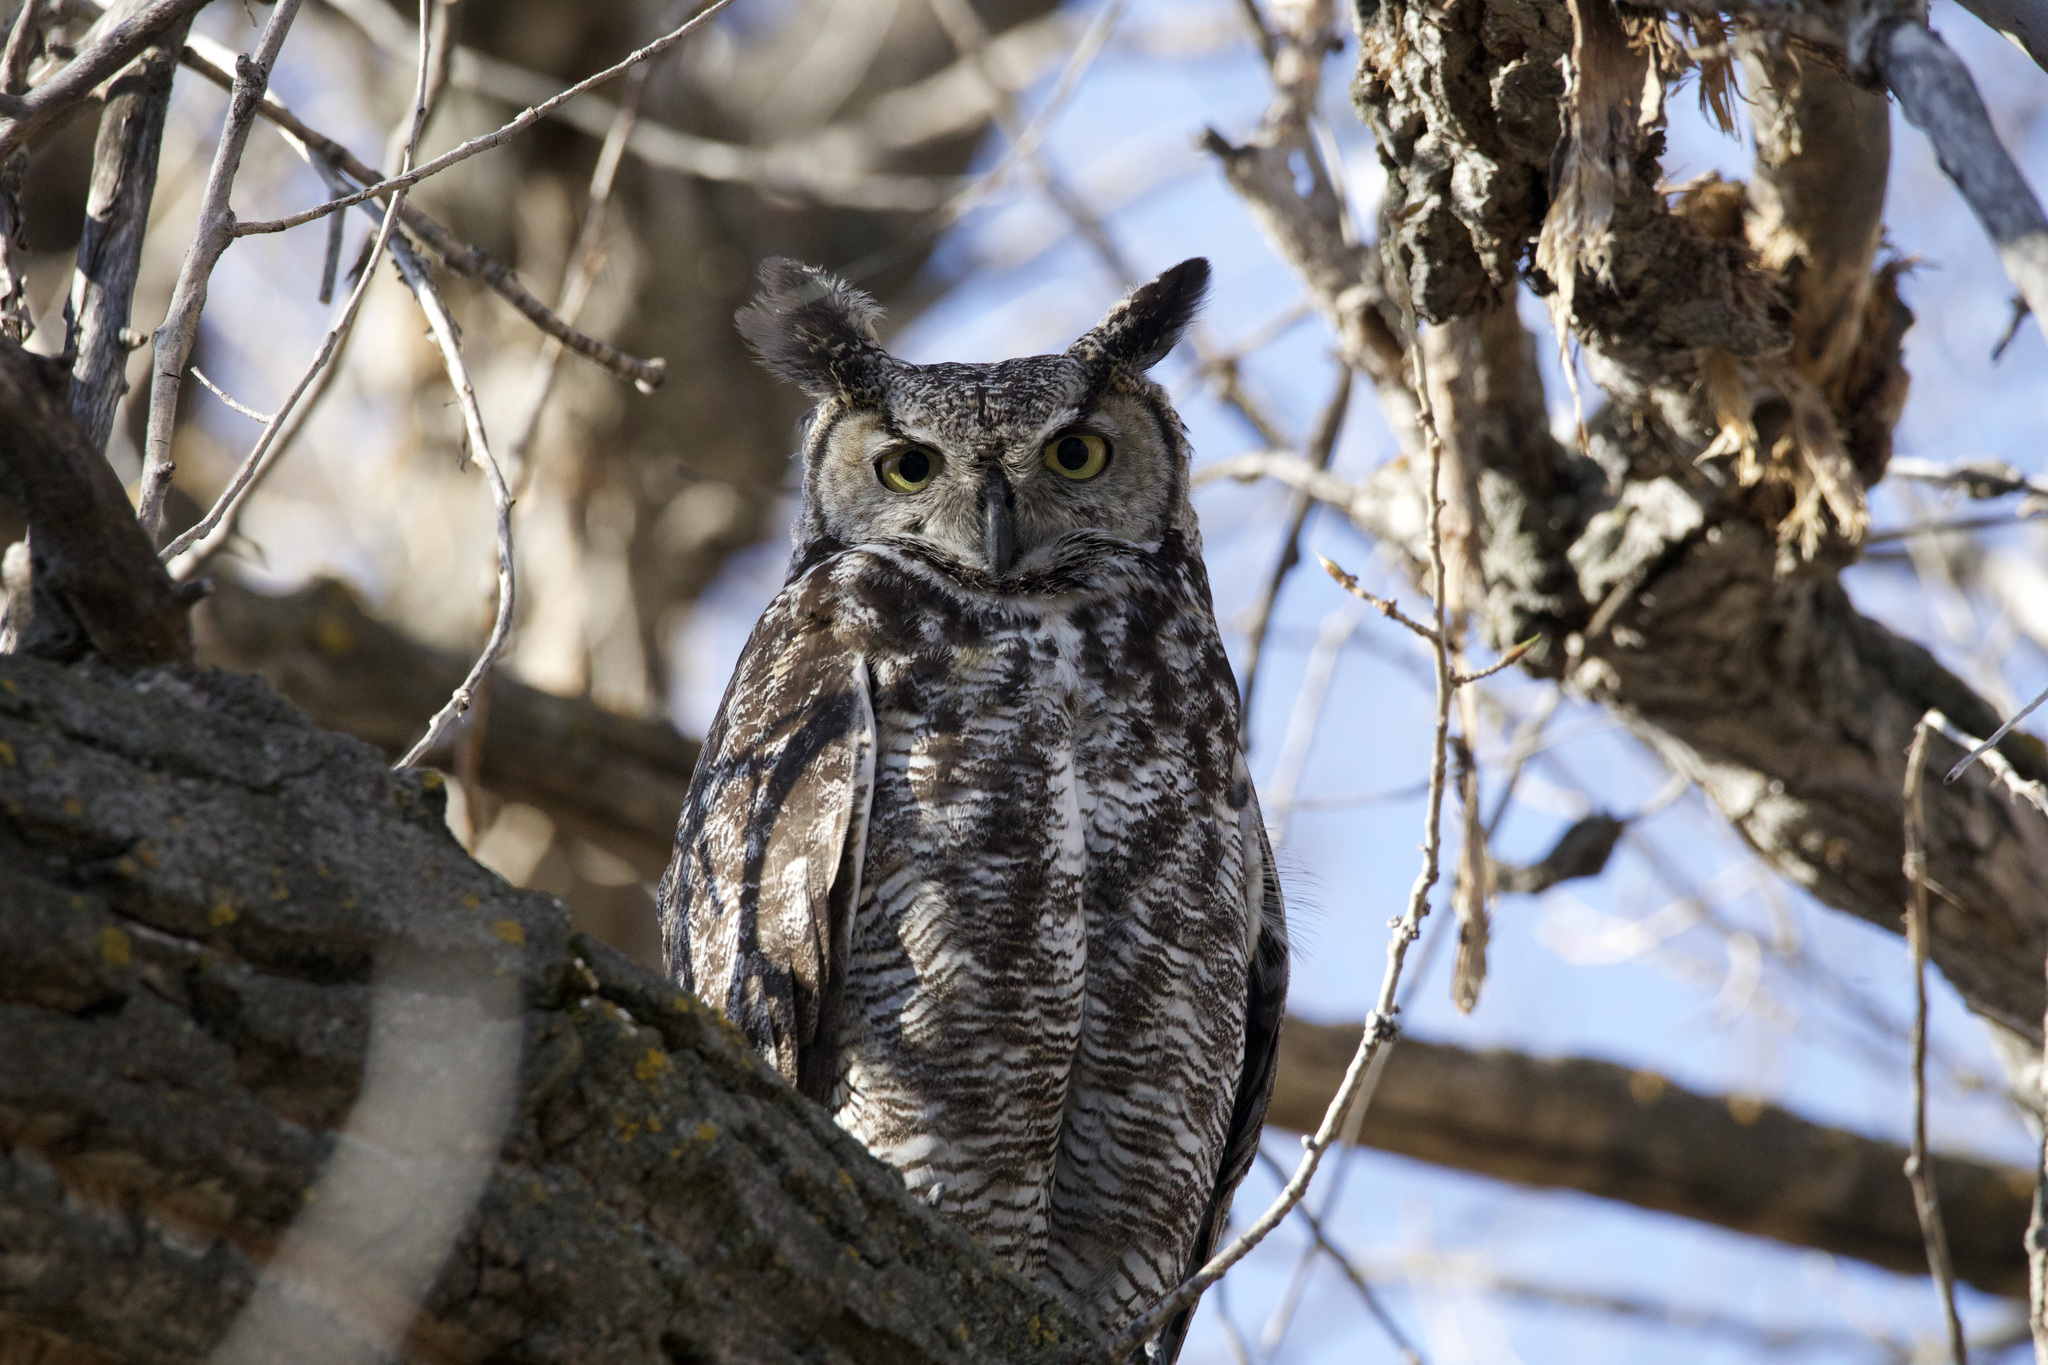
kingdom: Animalia
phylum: Chordata
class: Aves
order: Strigiformes
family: Strigidae
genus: Bubo
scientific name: Bubo virginianus
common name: Great horned owl
